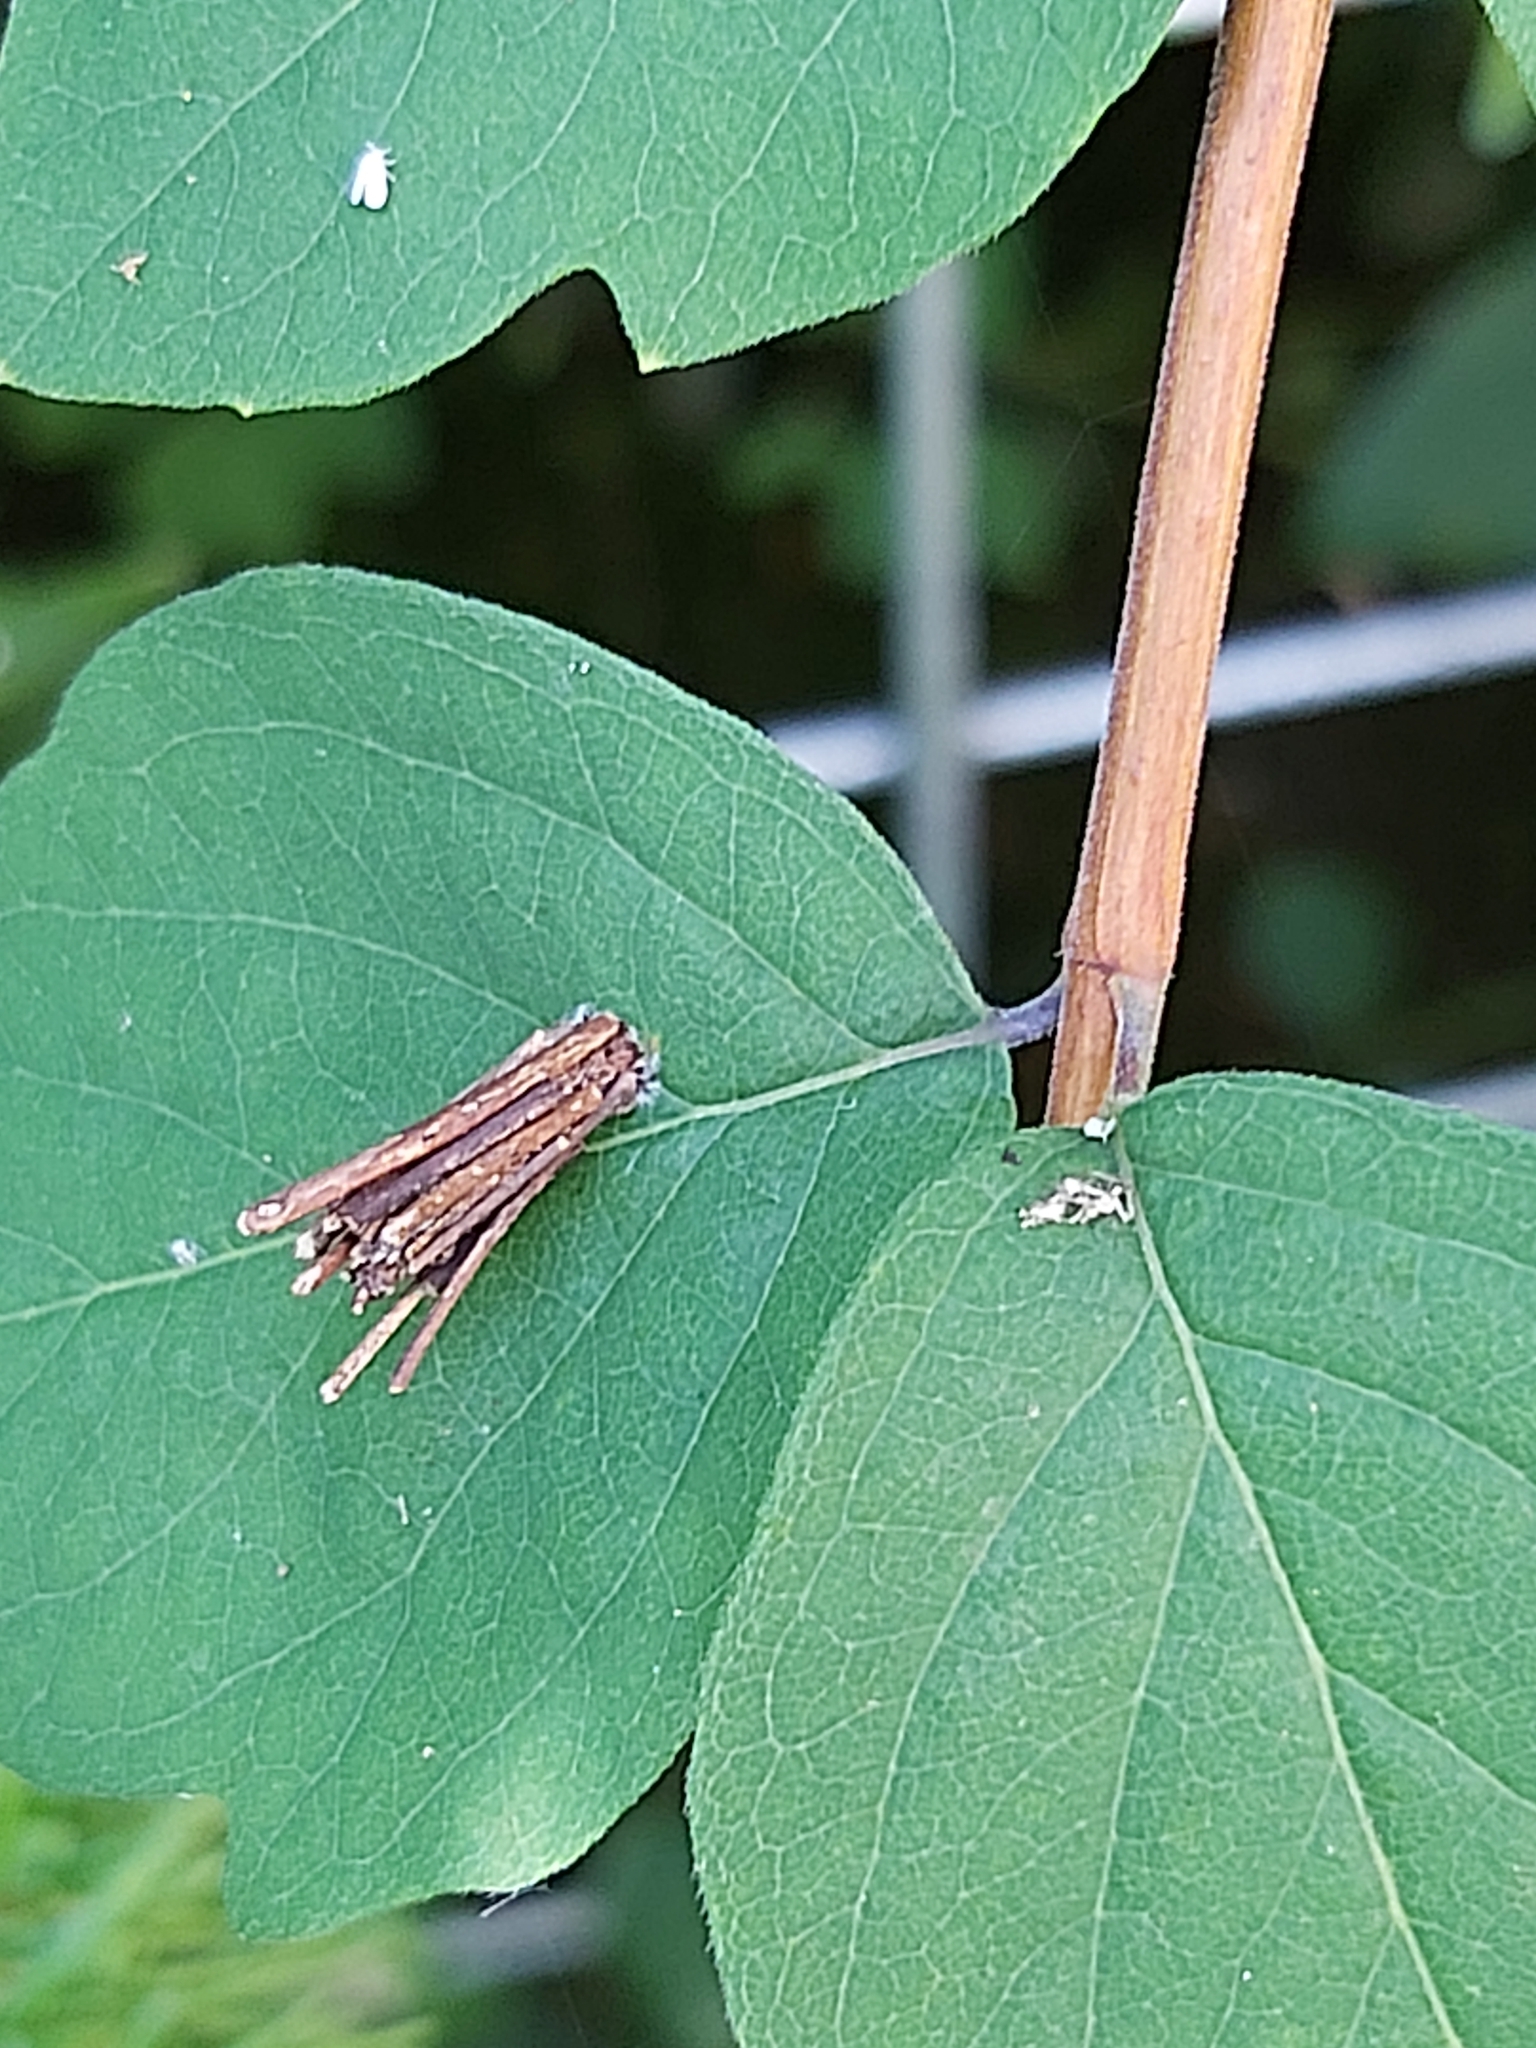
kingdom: Animalia
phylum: Arthropoda
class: Insecta
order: Lepidoptera
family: Psychidae
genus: Psyche
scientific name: Psyche casta
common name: Common sweep
